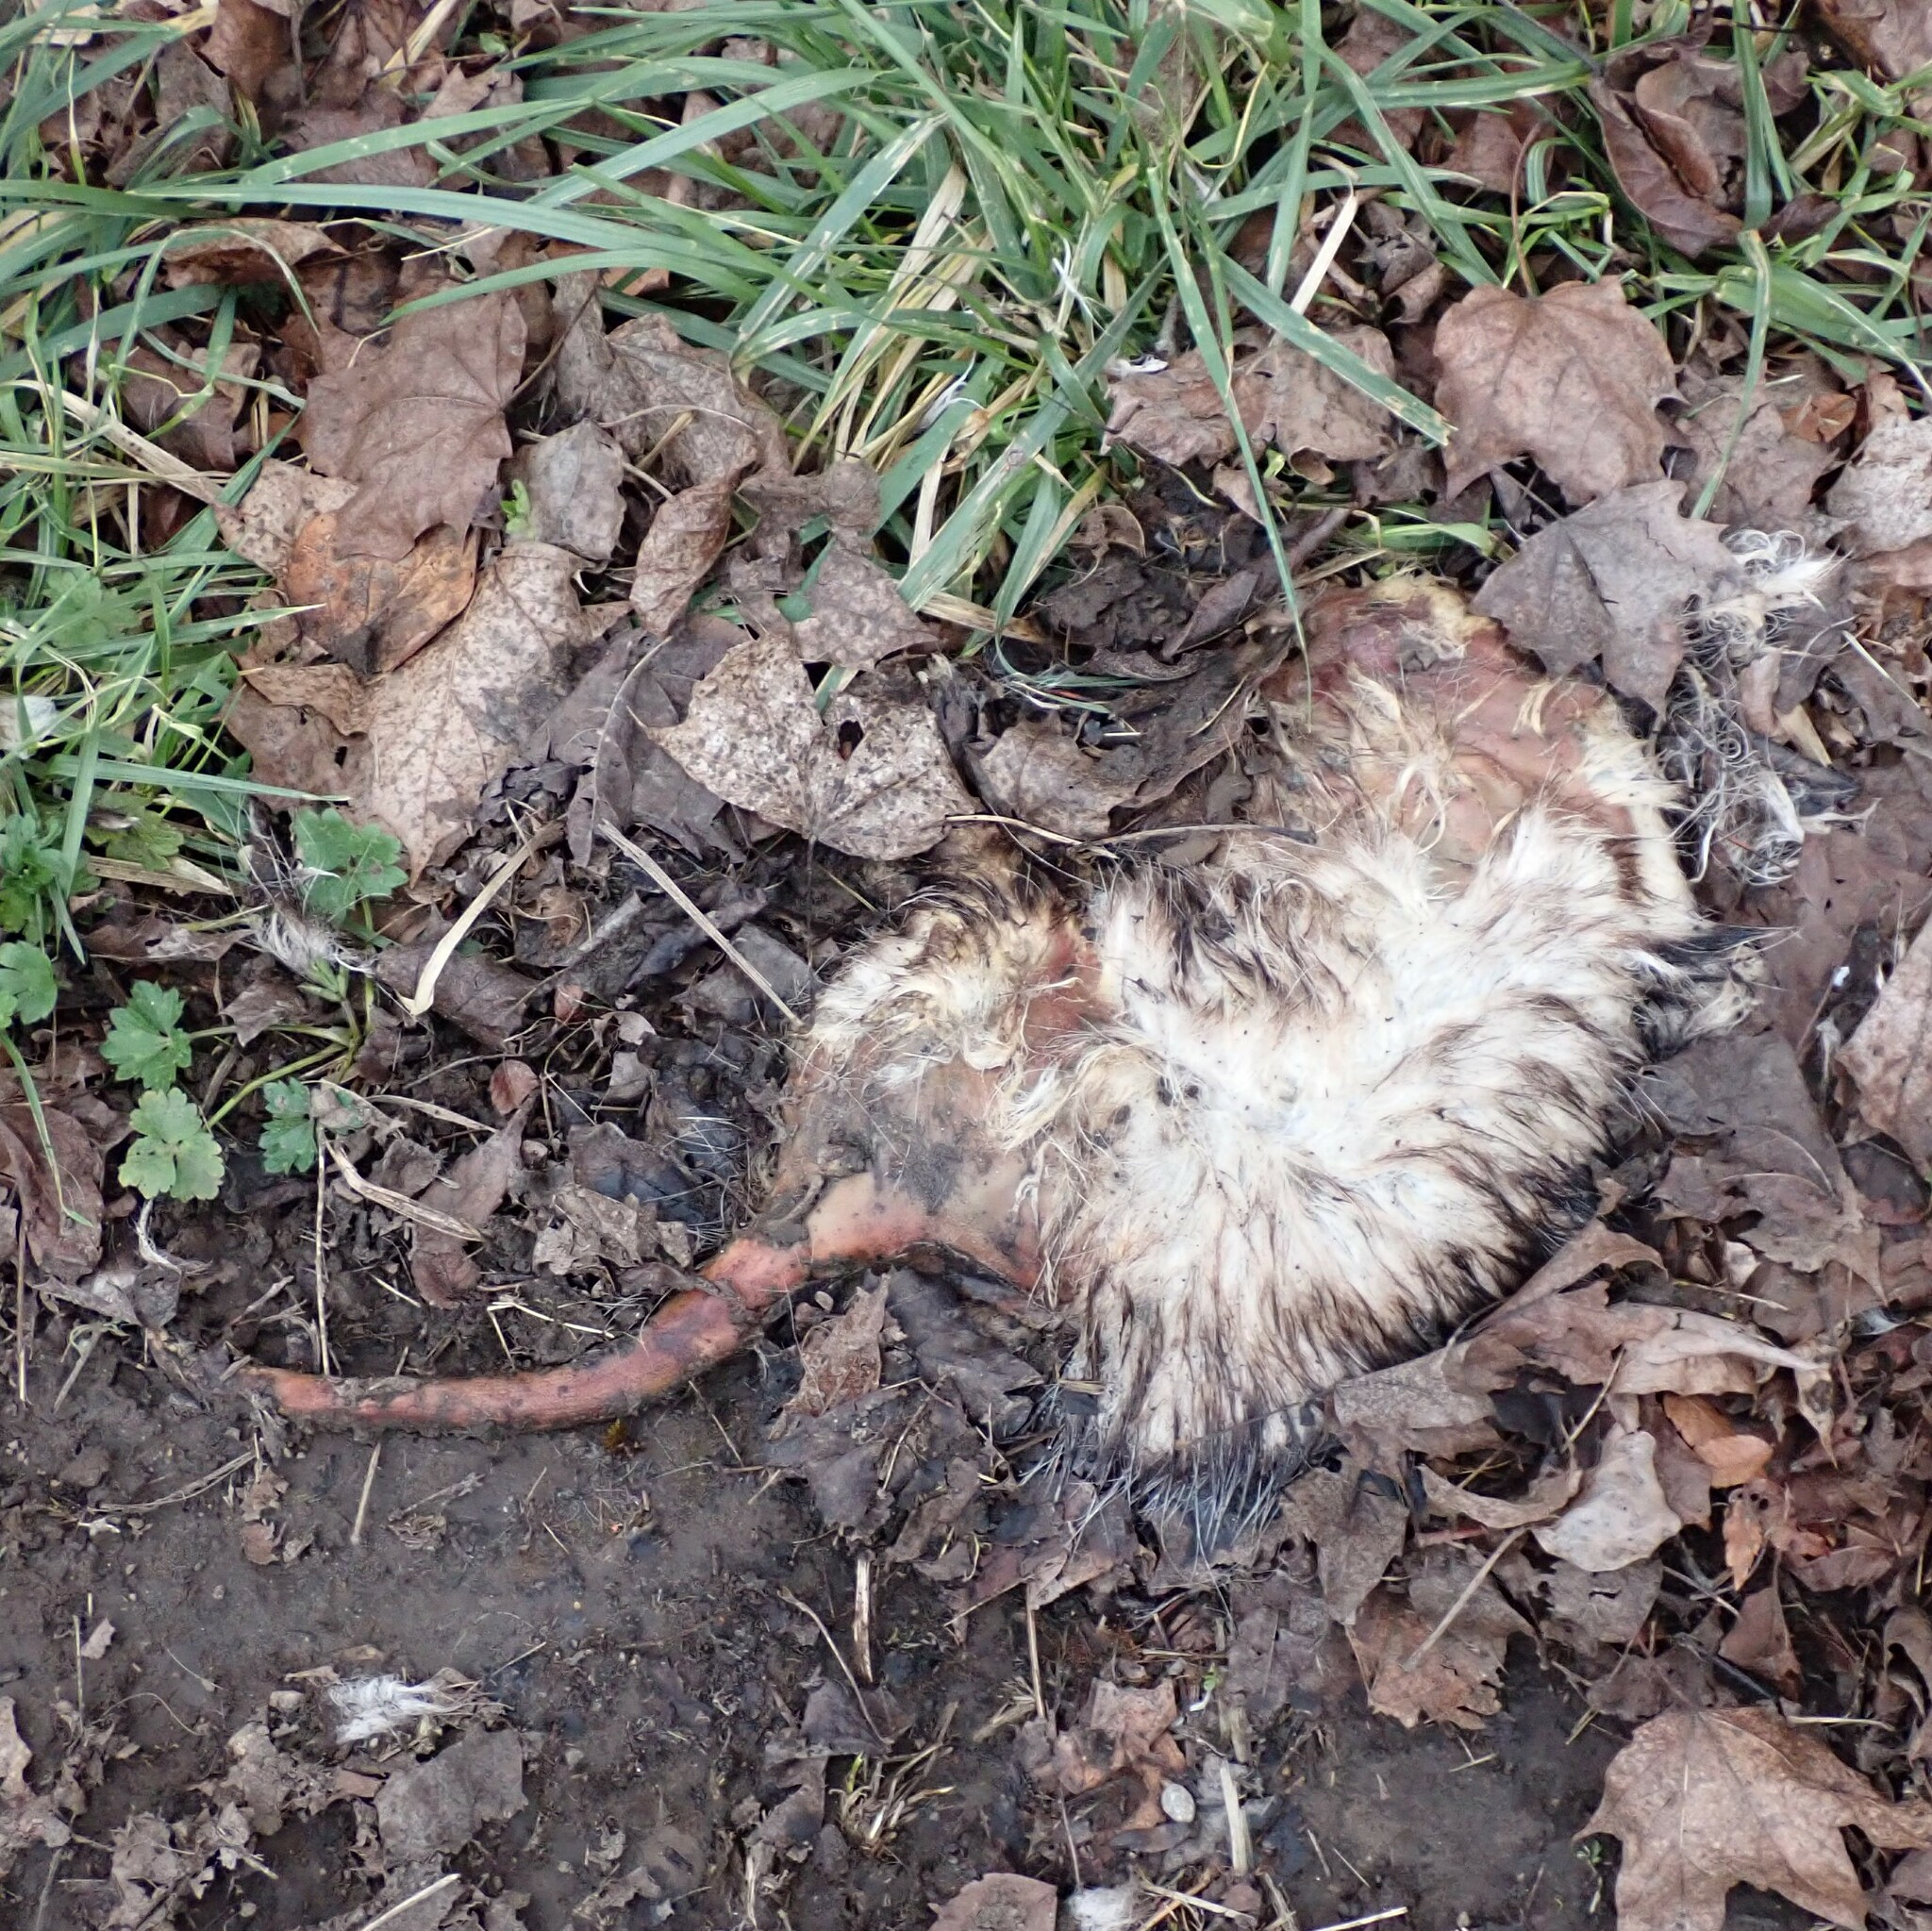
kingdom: Animalia
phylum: Chordata
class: Mammalia
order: Didelphimorphia
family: Didelphidae
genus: Didelphis
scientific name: Didelphis virginiana
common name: Virginia opossum
